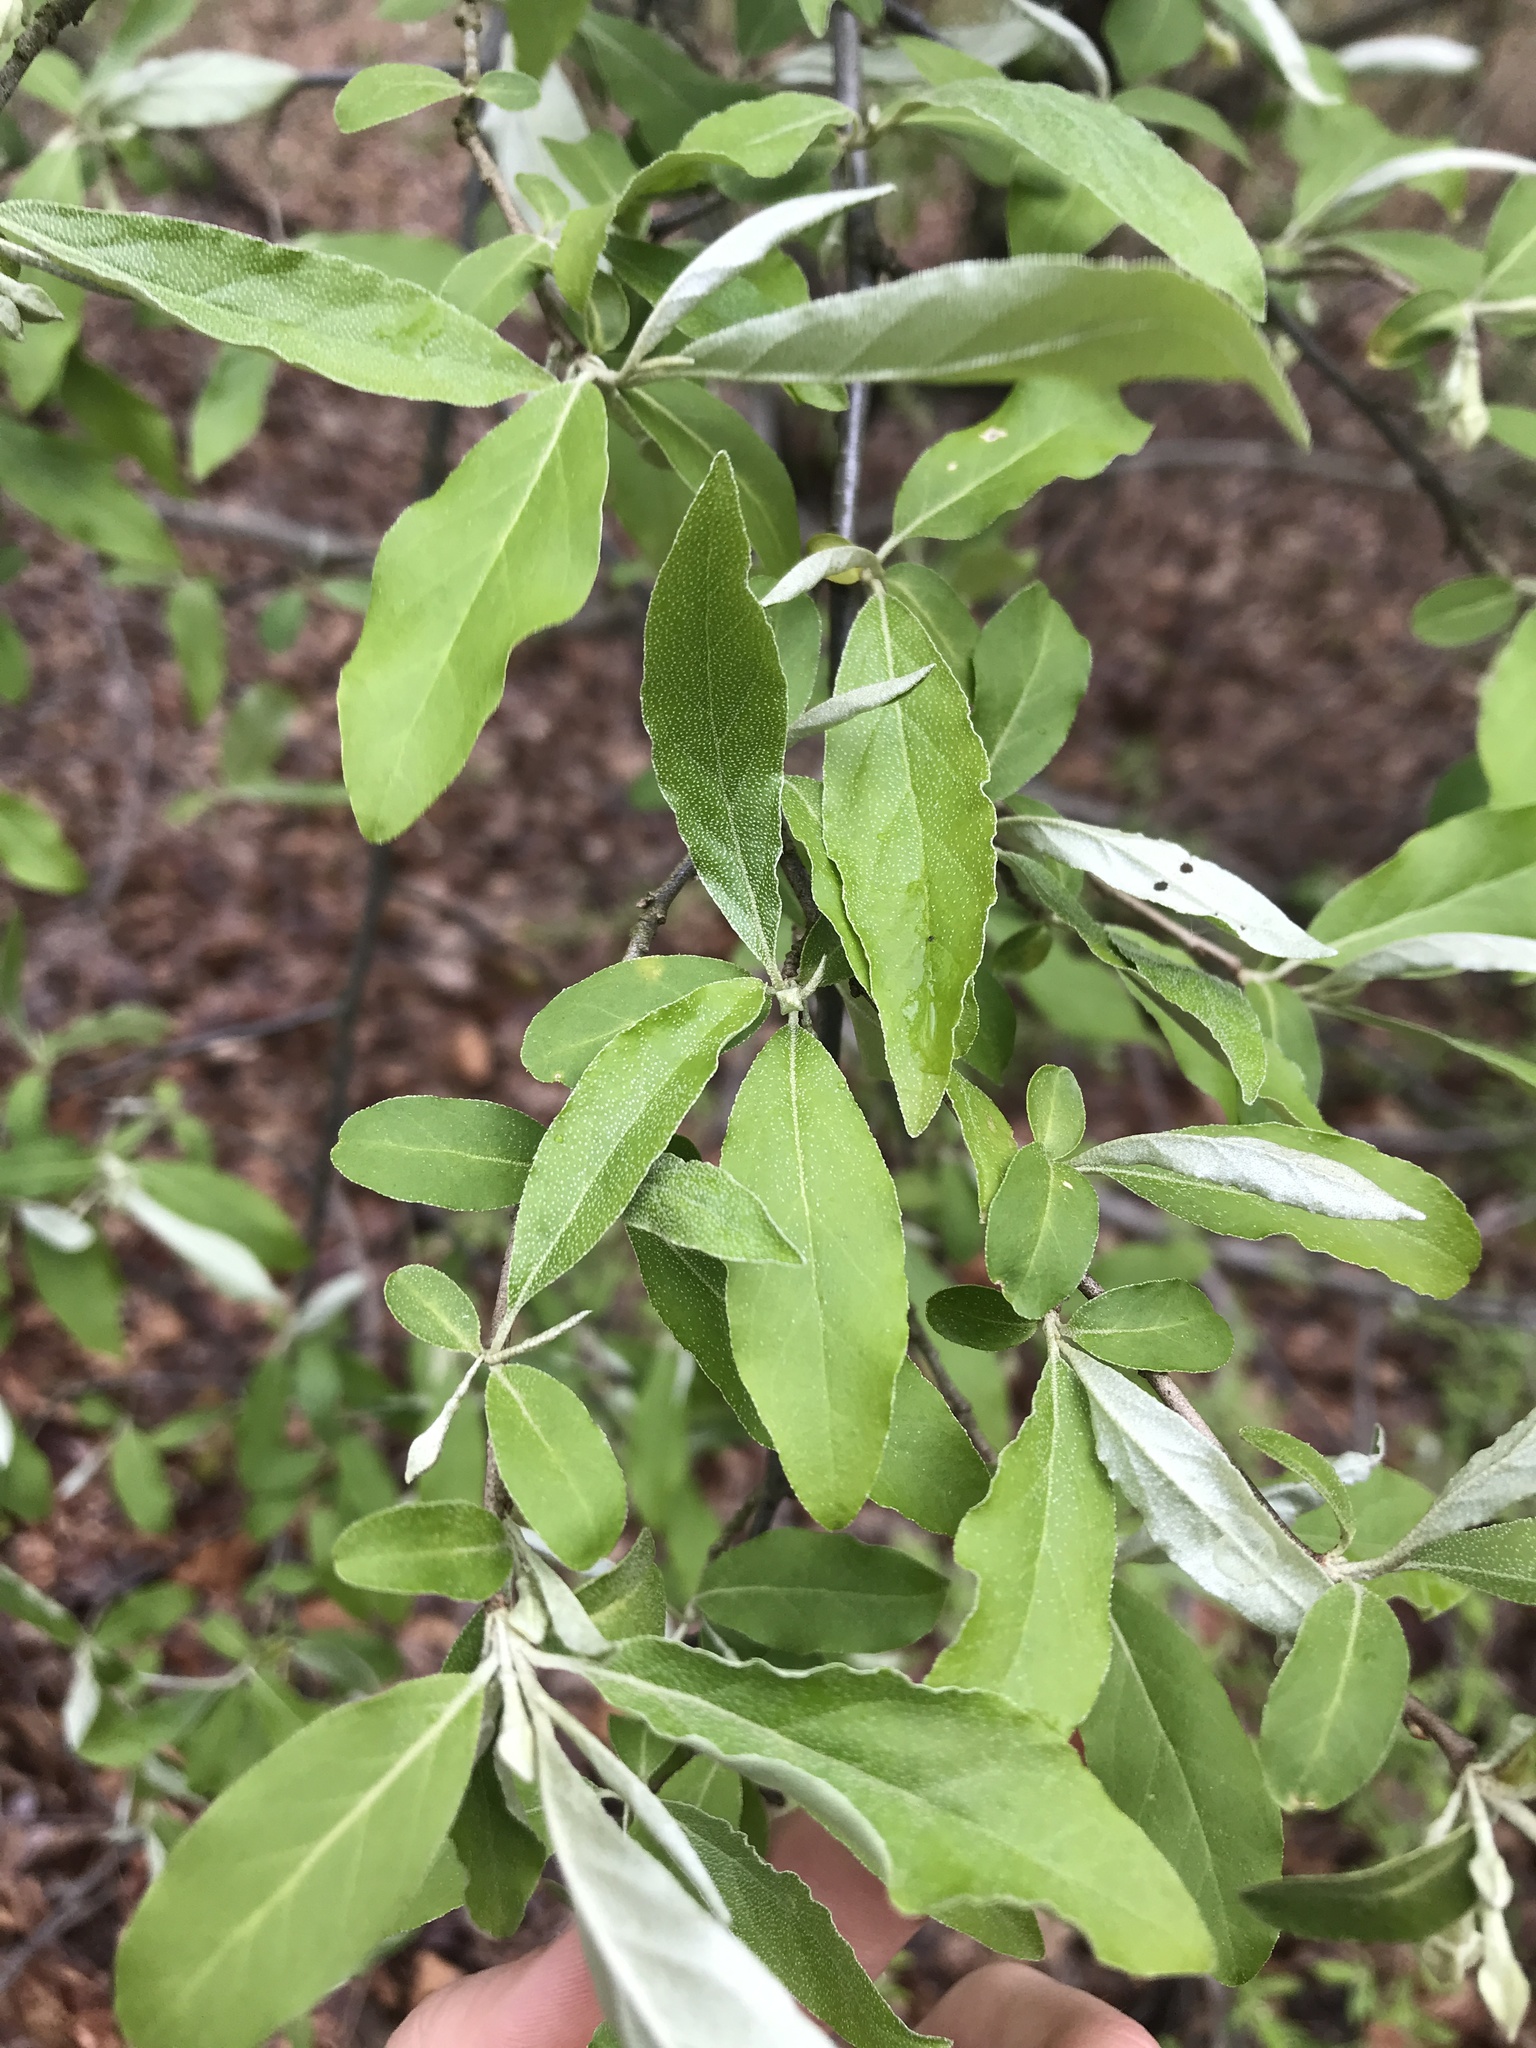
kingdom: Plantae
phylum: Tracheophyta
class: Magnoliopsida
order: Rosales
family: Elaeagnaceae
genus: Elaeagnus
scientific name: Elaeagnus umbellata
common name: Autumn olive
